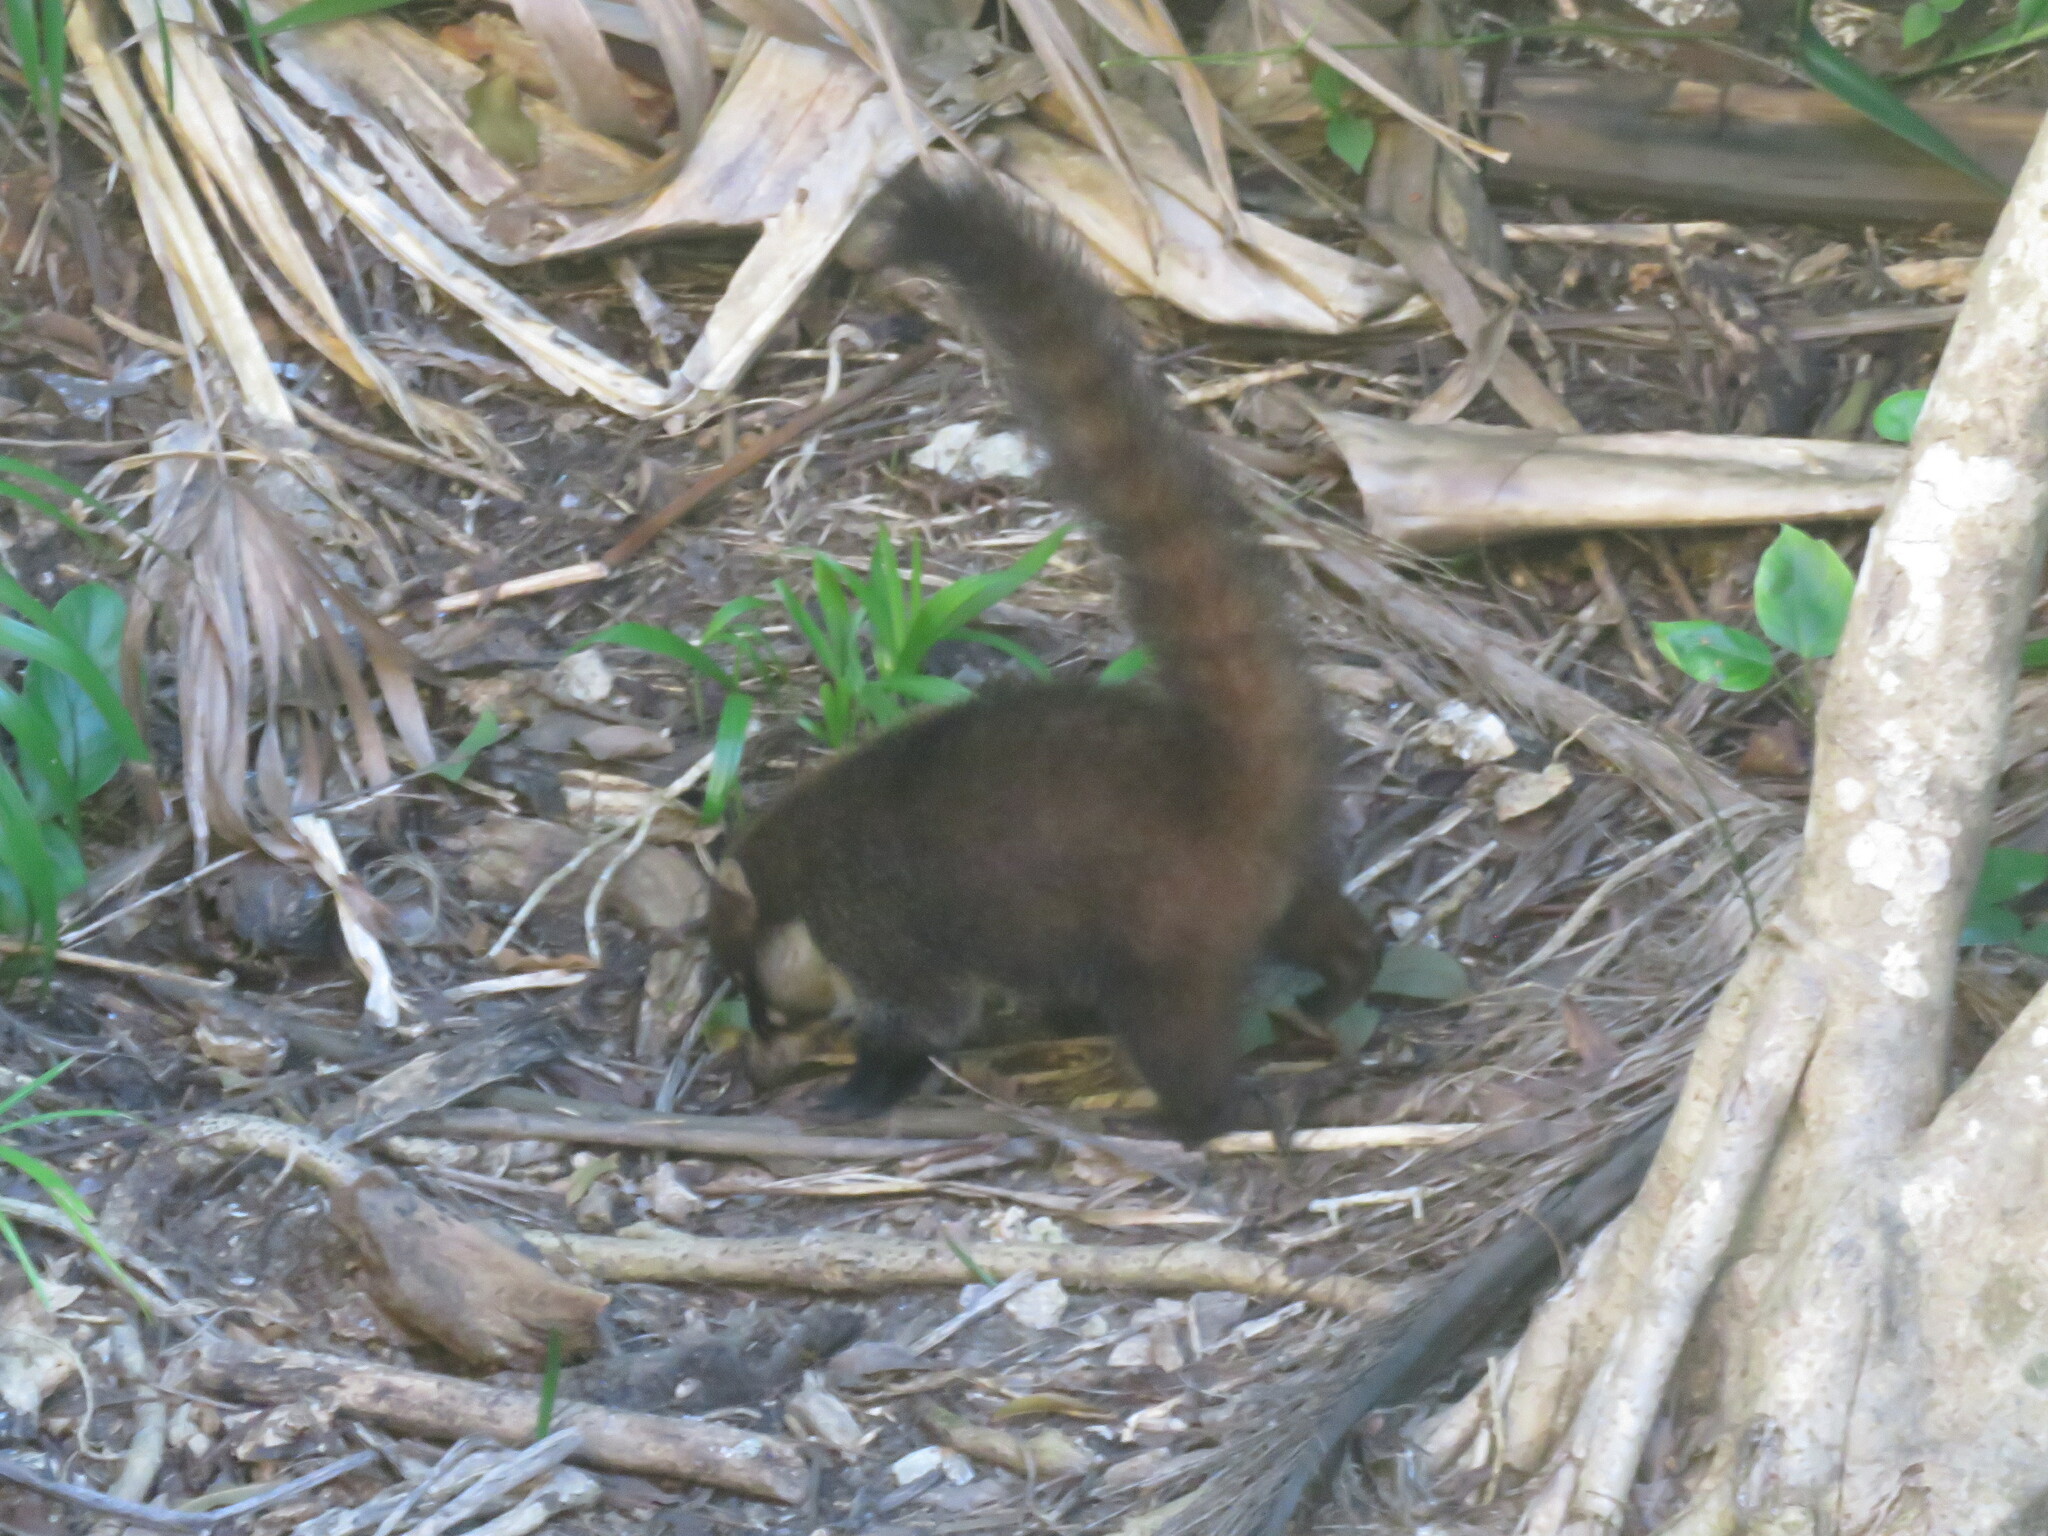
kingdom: Animalia
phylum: Chordata
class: Mammalia
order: Carnivora
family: Procyonidae
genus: Nasua
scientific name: Nasua narica
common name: White-nosed coati
